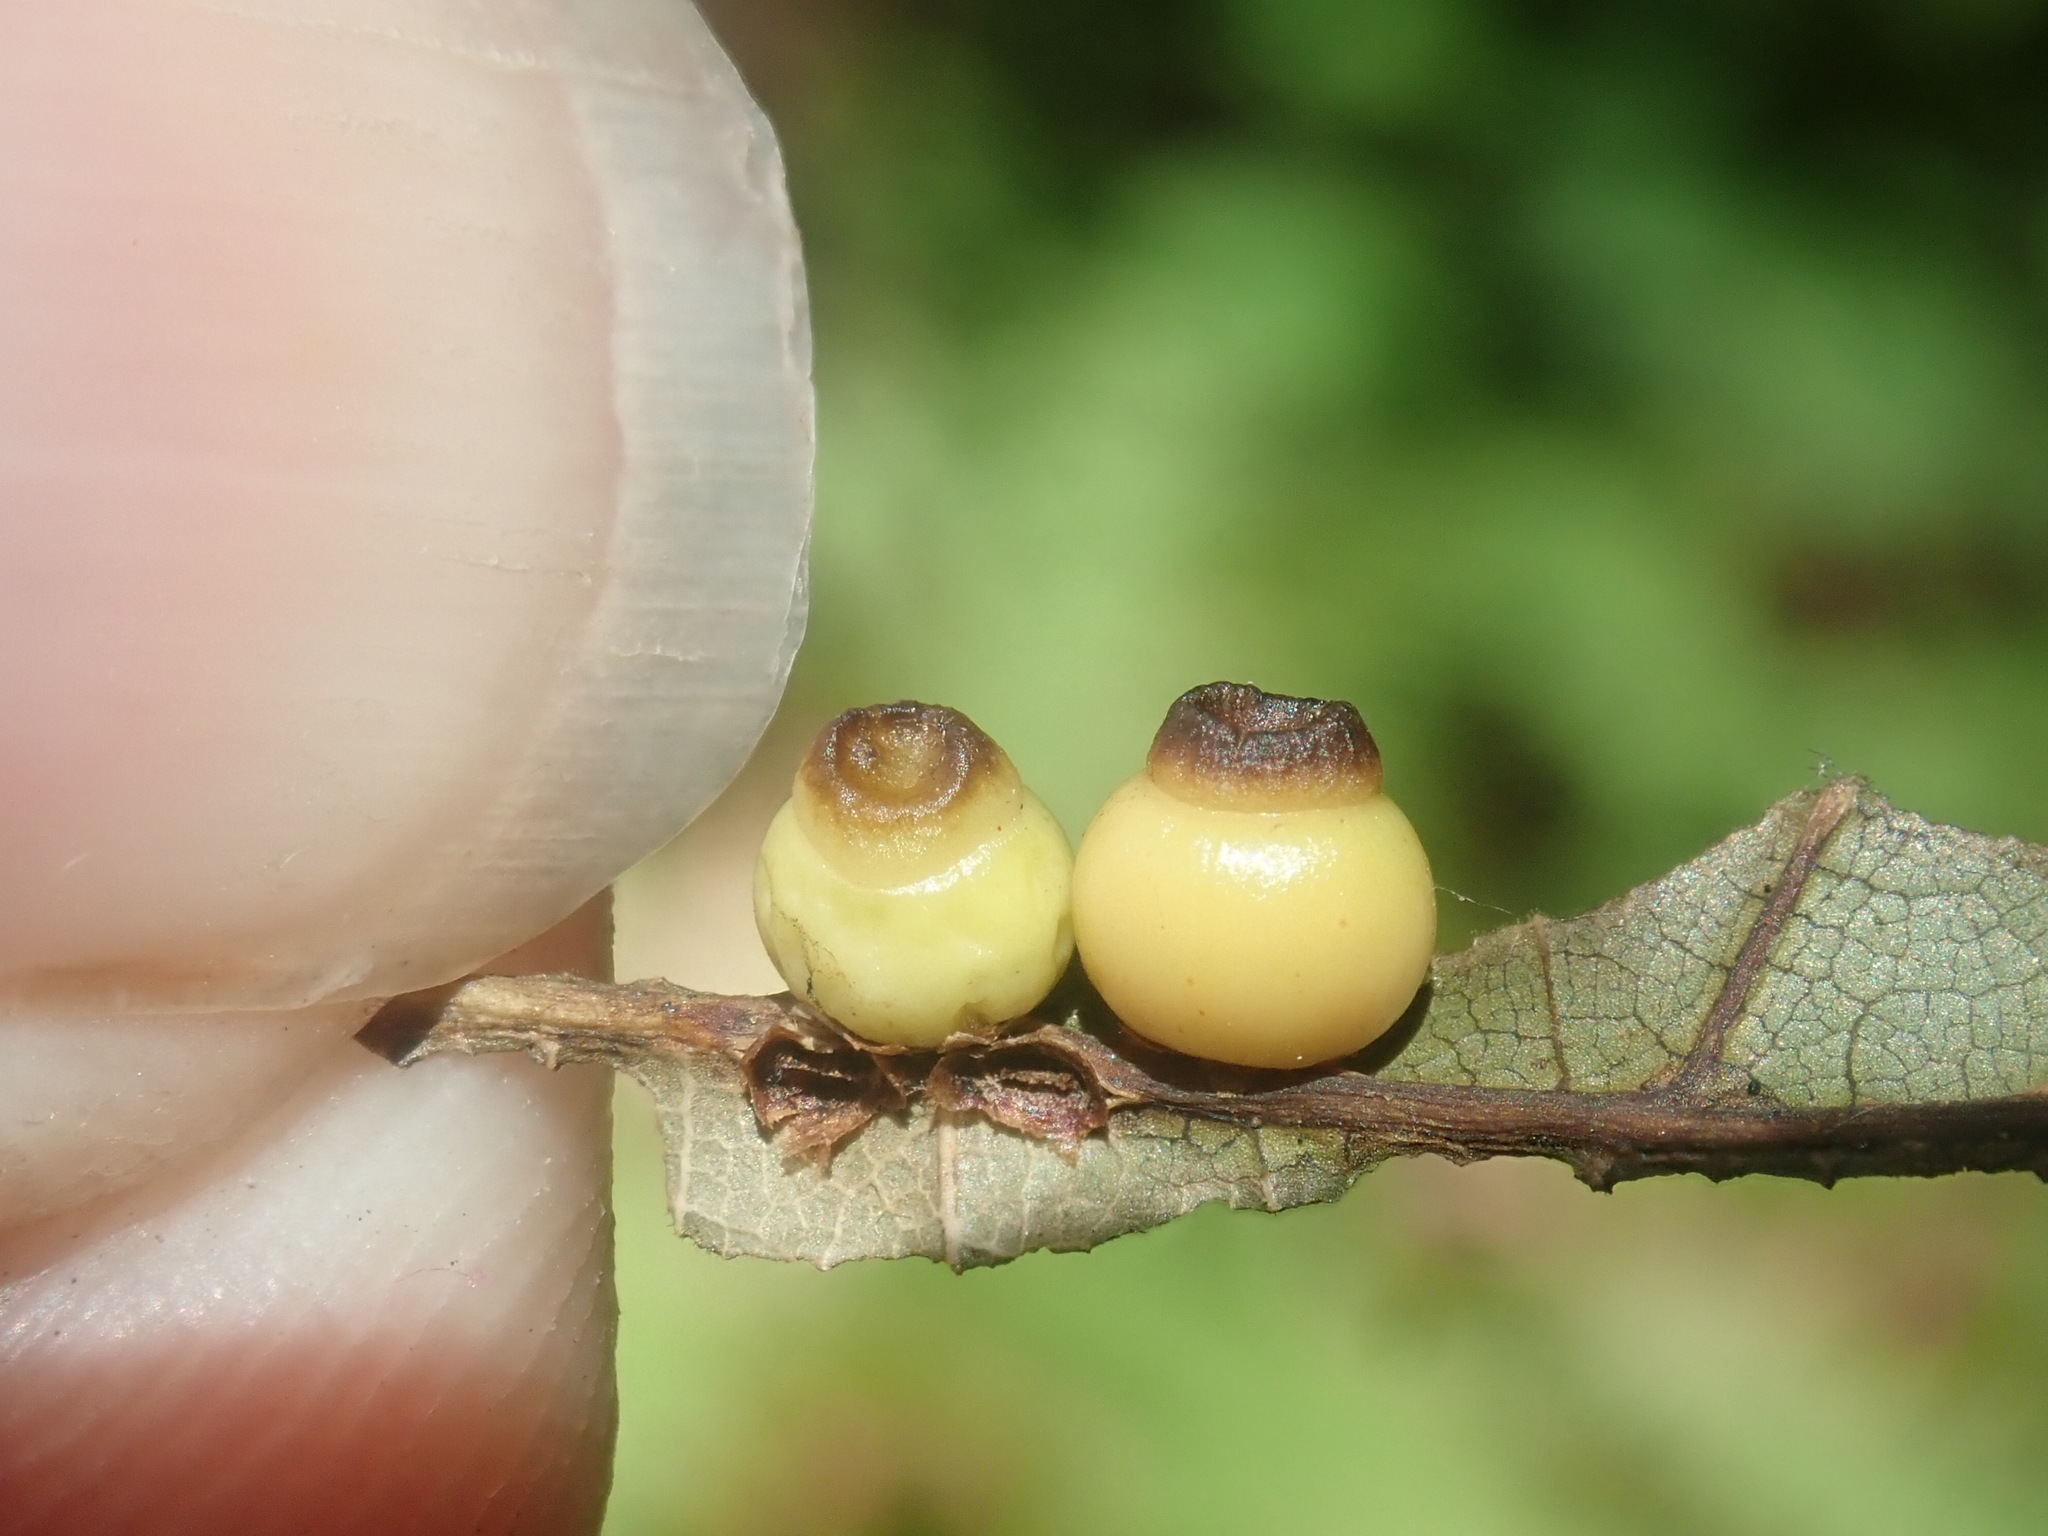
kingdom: Animalia
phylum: Arthropoda
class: Insecta
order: Hymenoptera
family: Cynipidae
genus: Kokkocynips
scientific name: Kokkocynips rileyi
